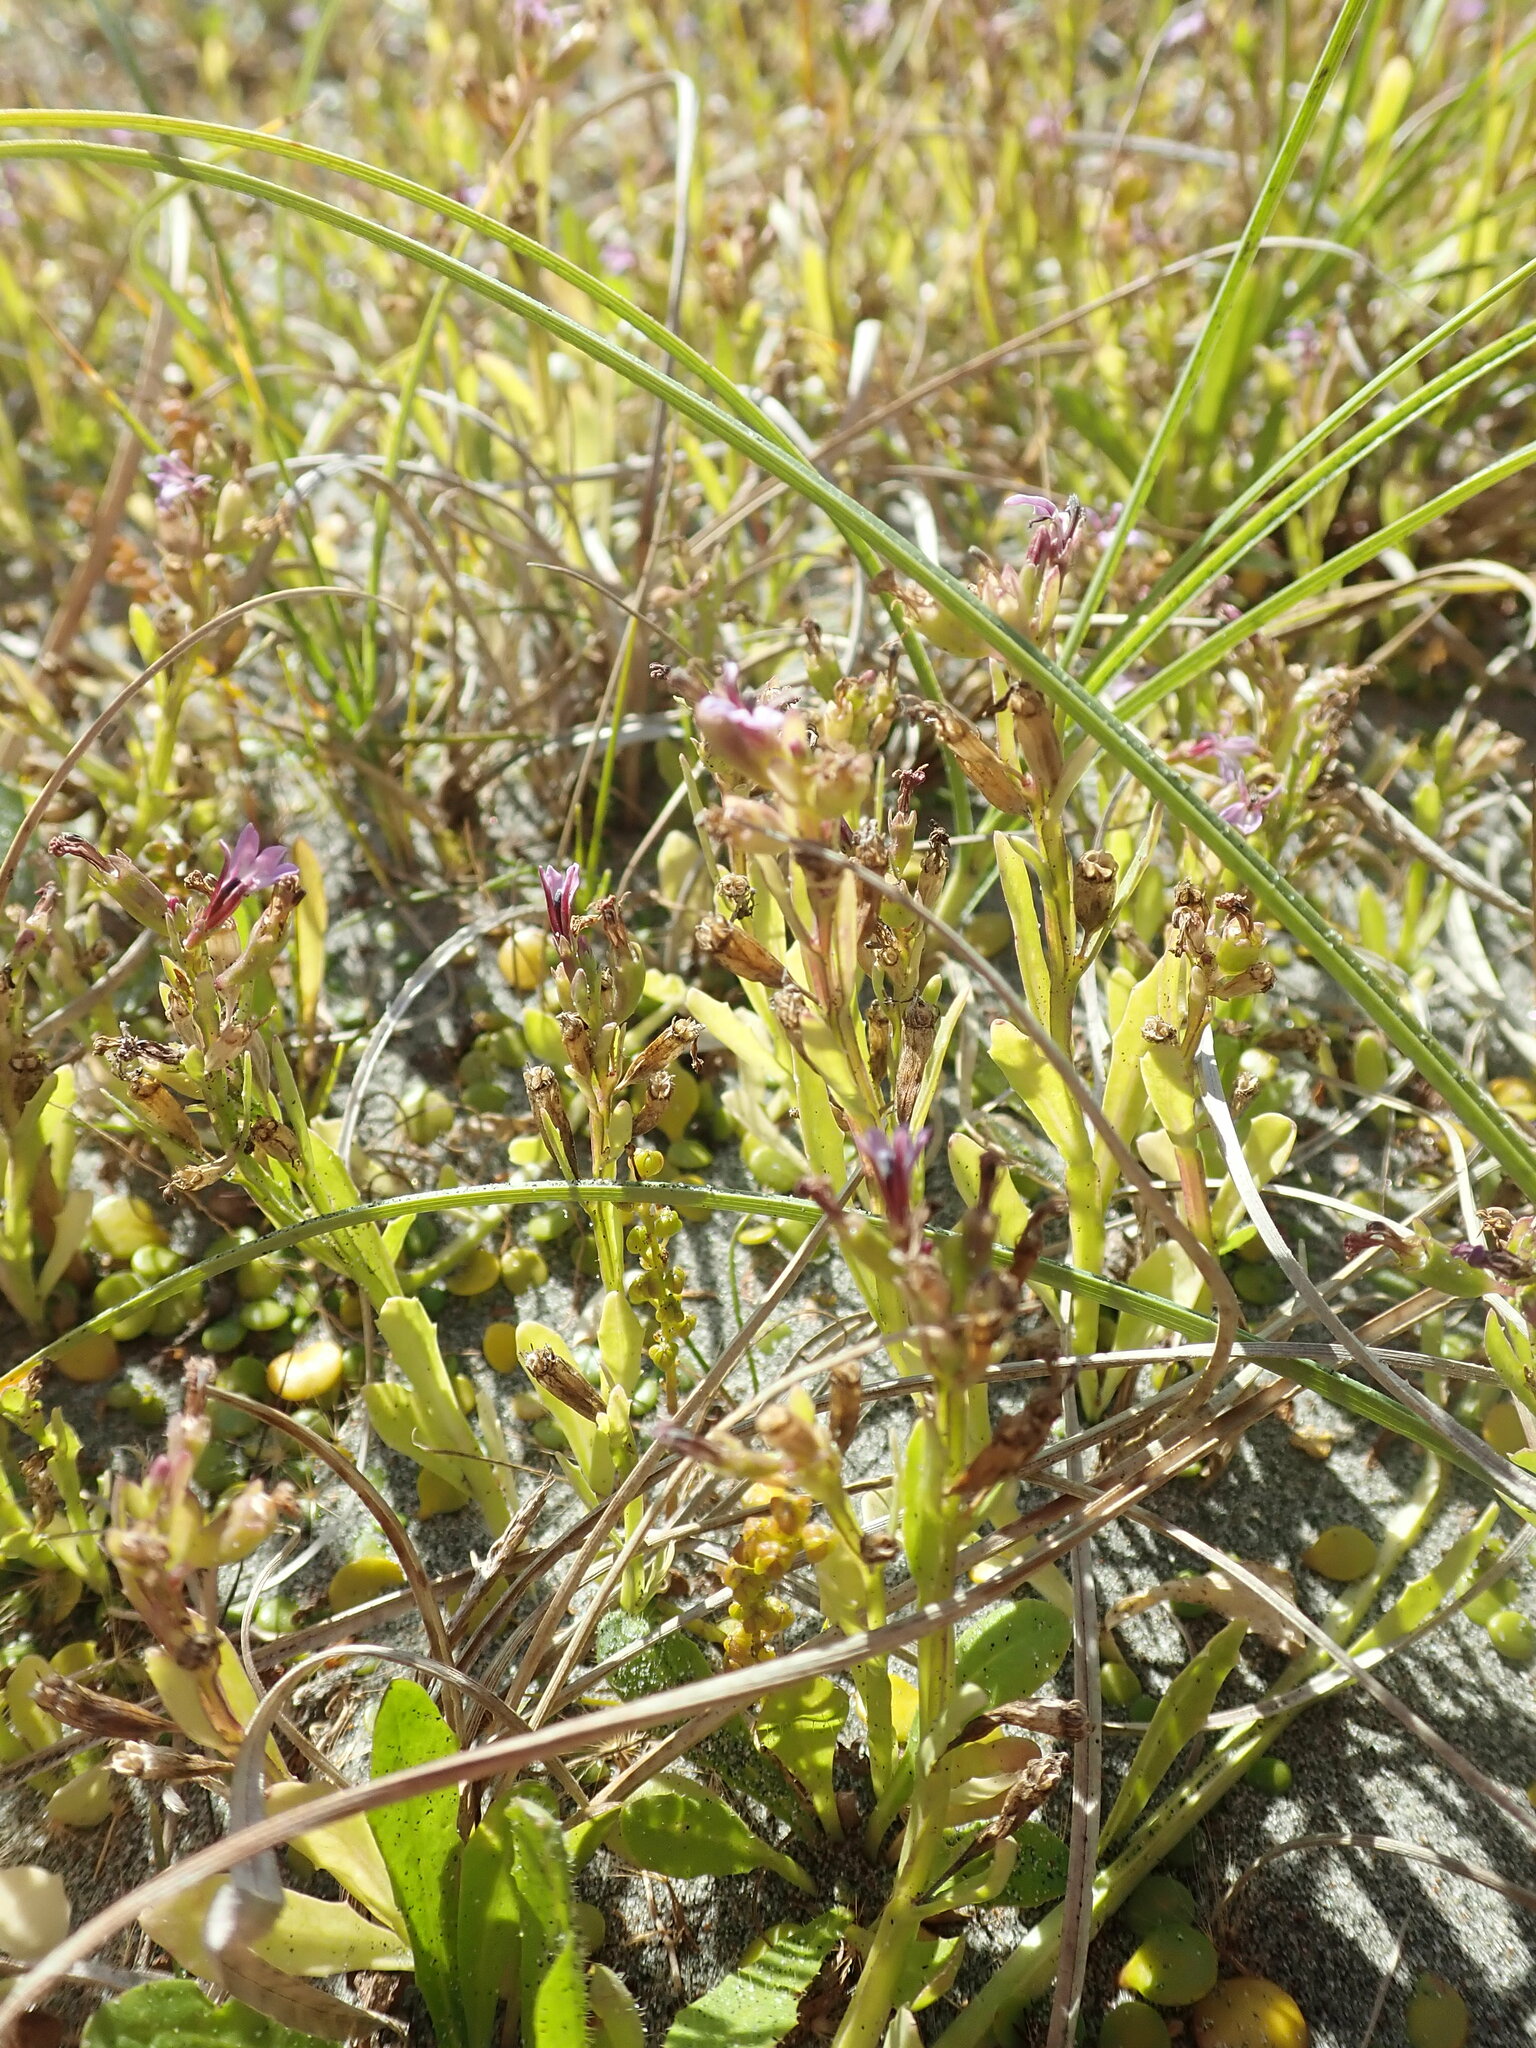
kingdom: Plantae
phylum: Tracheophyta
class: Magnoliopsida
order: Asterales
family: Campanulaceae
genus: Lobelia
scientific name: Lobelia anceps
